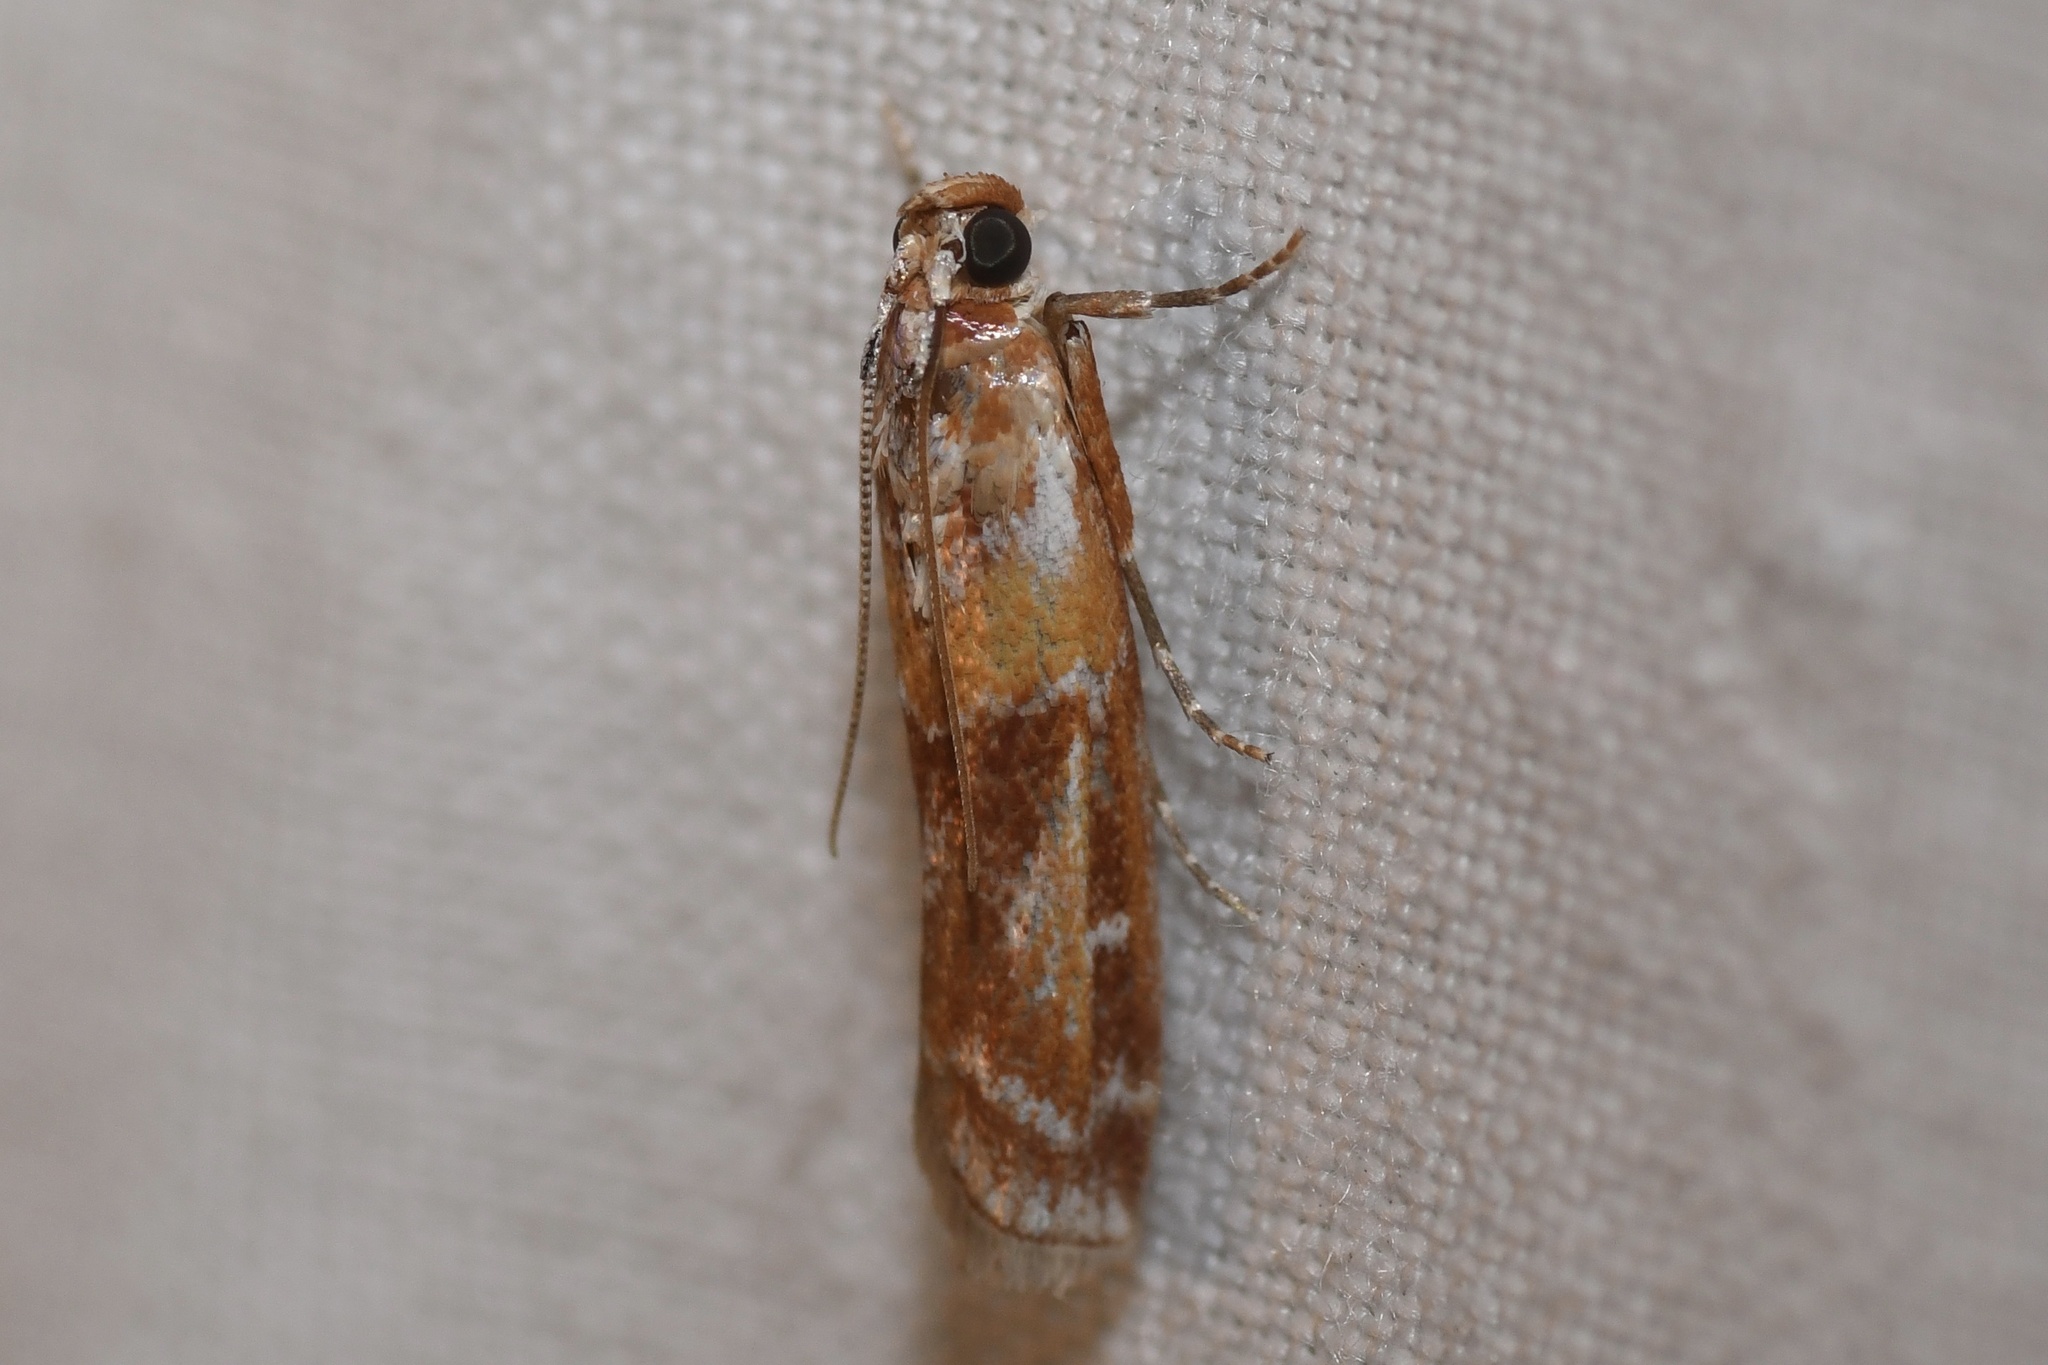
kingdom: Animalia
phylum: Arthropoda
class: Insecta
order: Lepidoptera
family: Pyralidae
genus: Dioryctria
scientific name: Dioryctria disclusa
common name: Rusty pine cone moth
